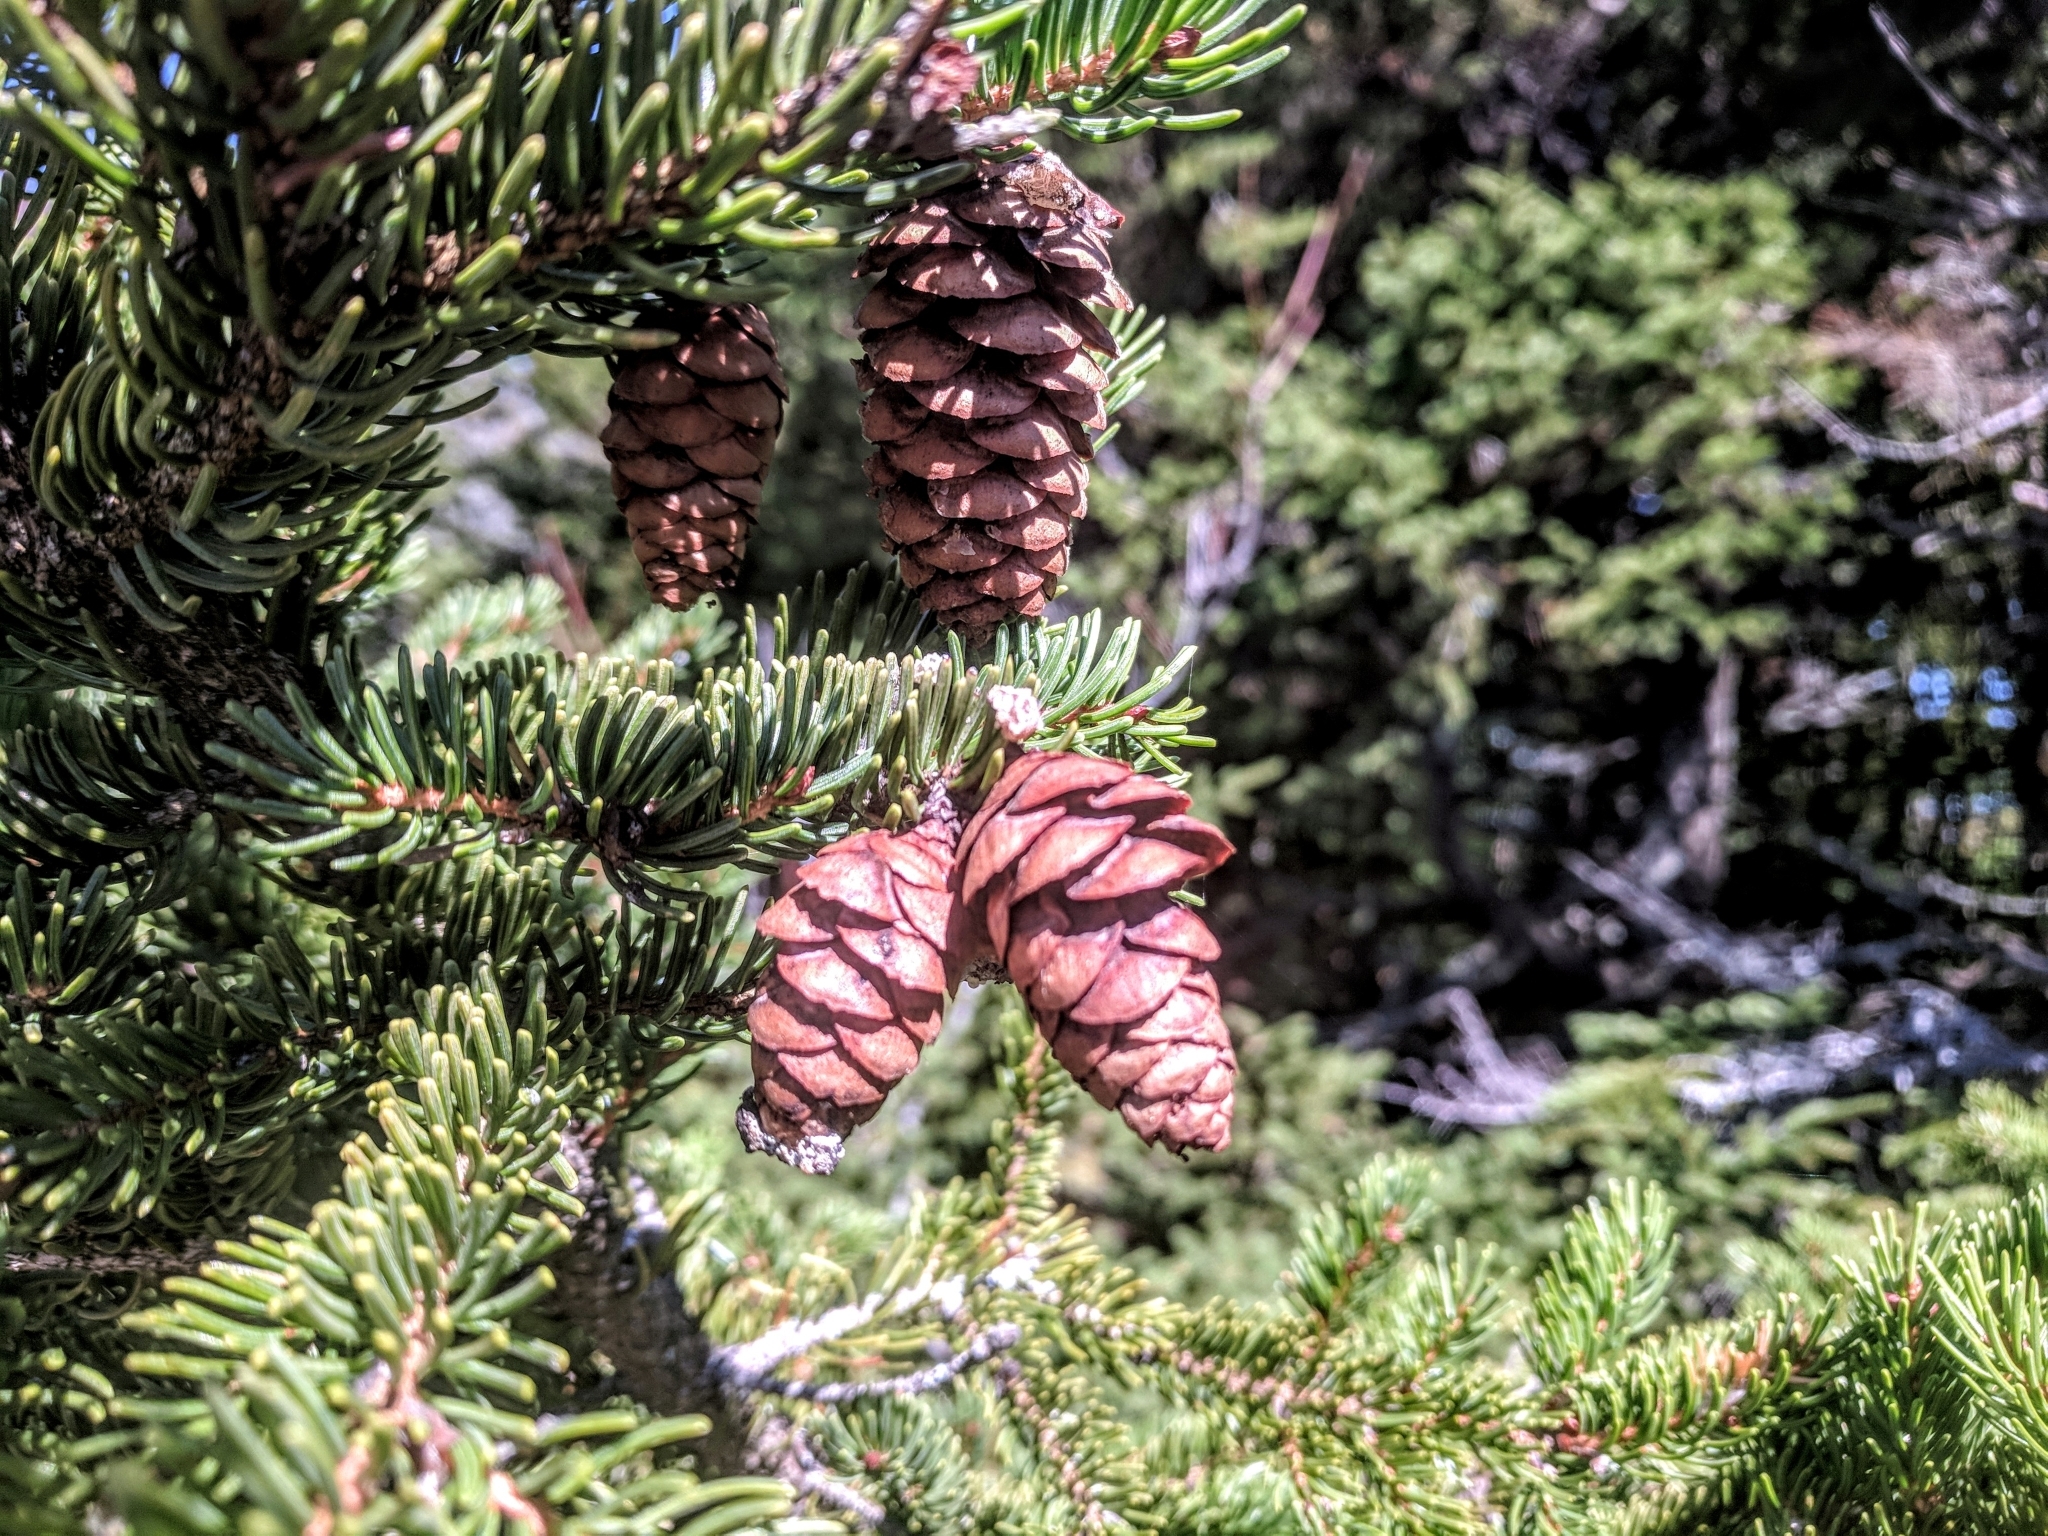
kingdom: Plantae
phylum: Tracheophyta
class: Pinopsida
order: Pinales
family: Pinaceae
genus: Picea
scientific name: Picea rubens
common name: Red spruce
